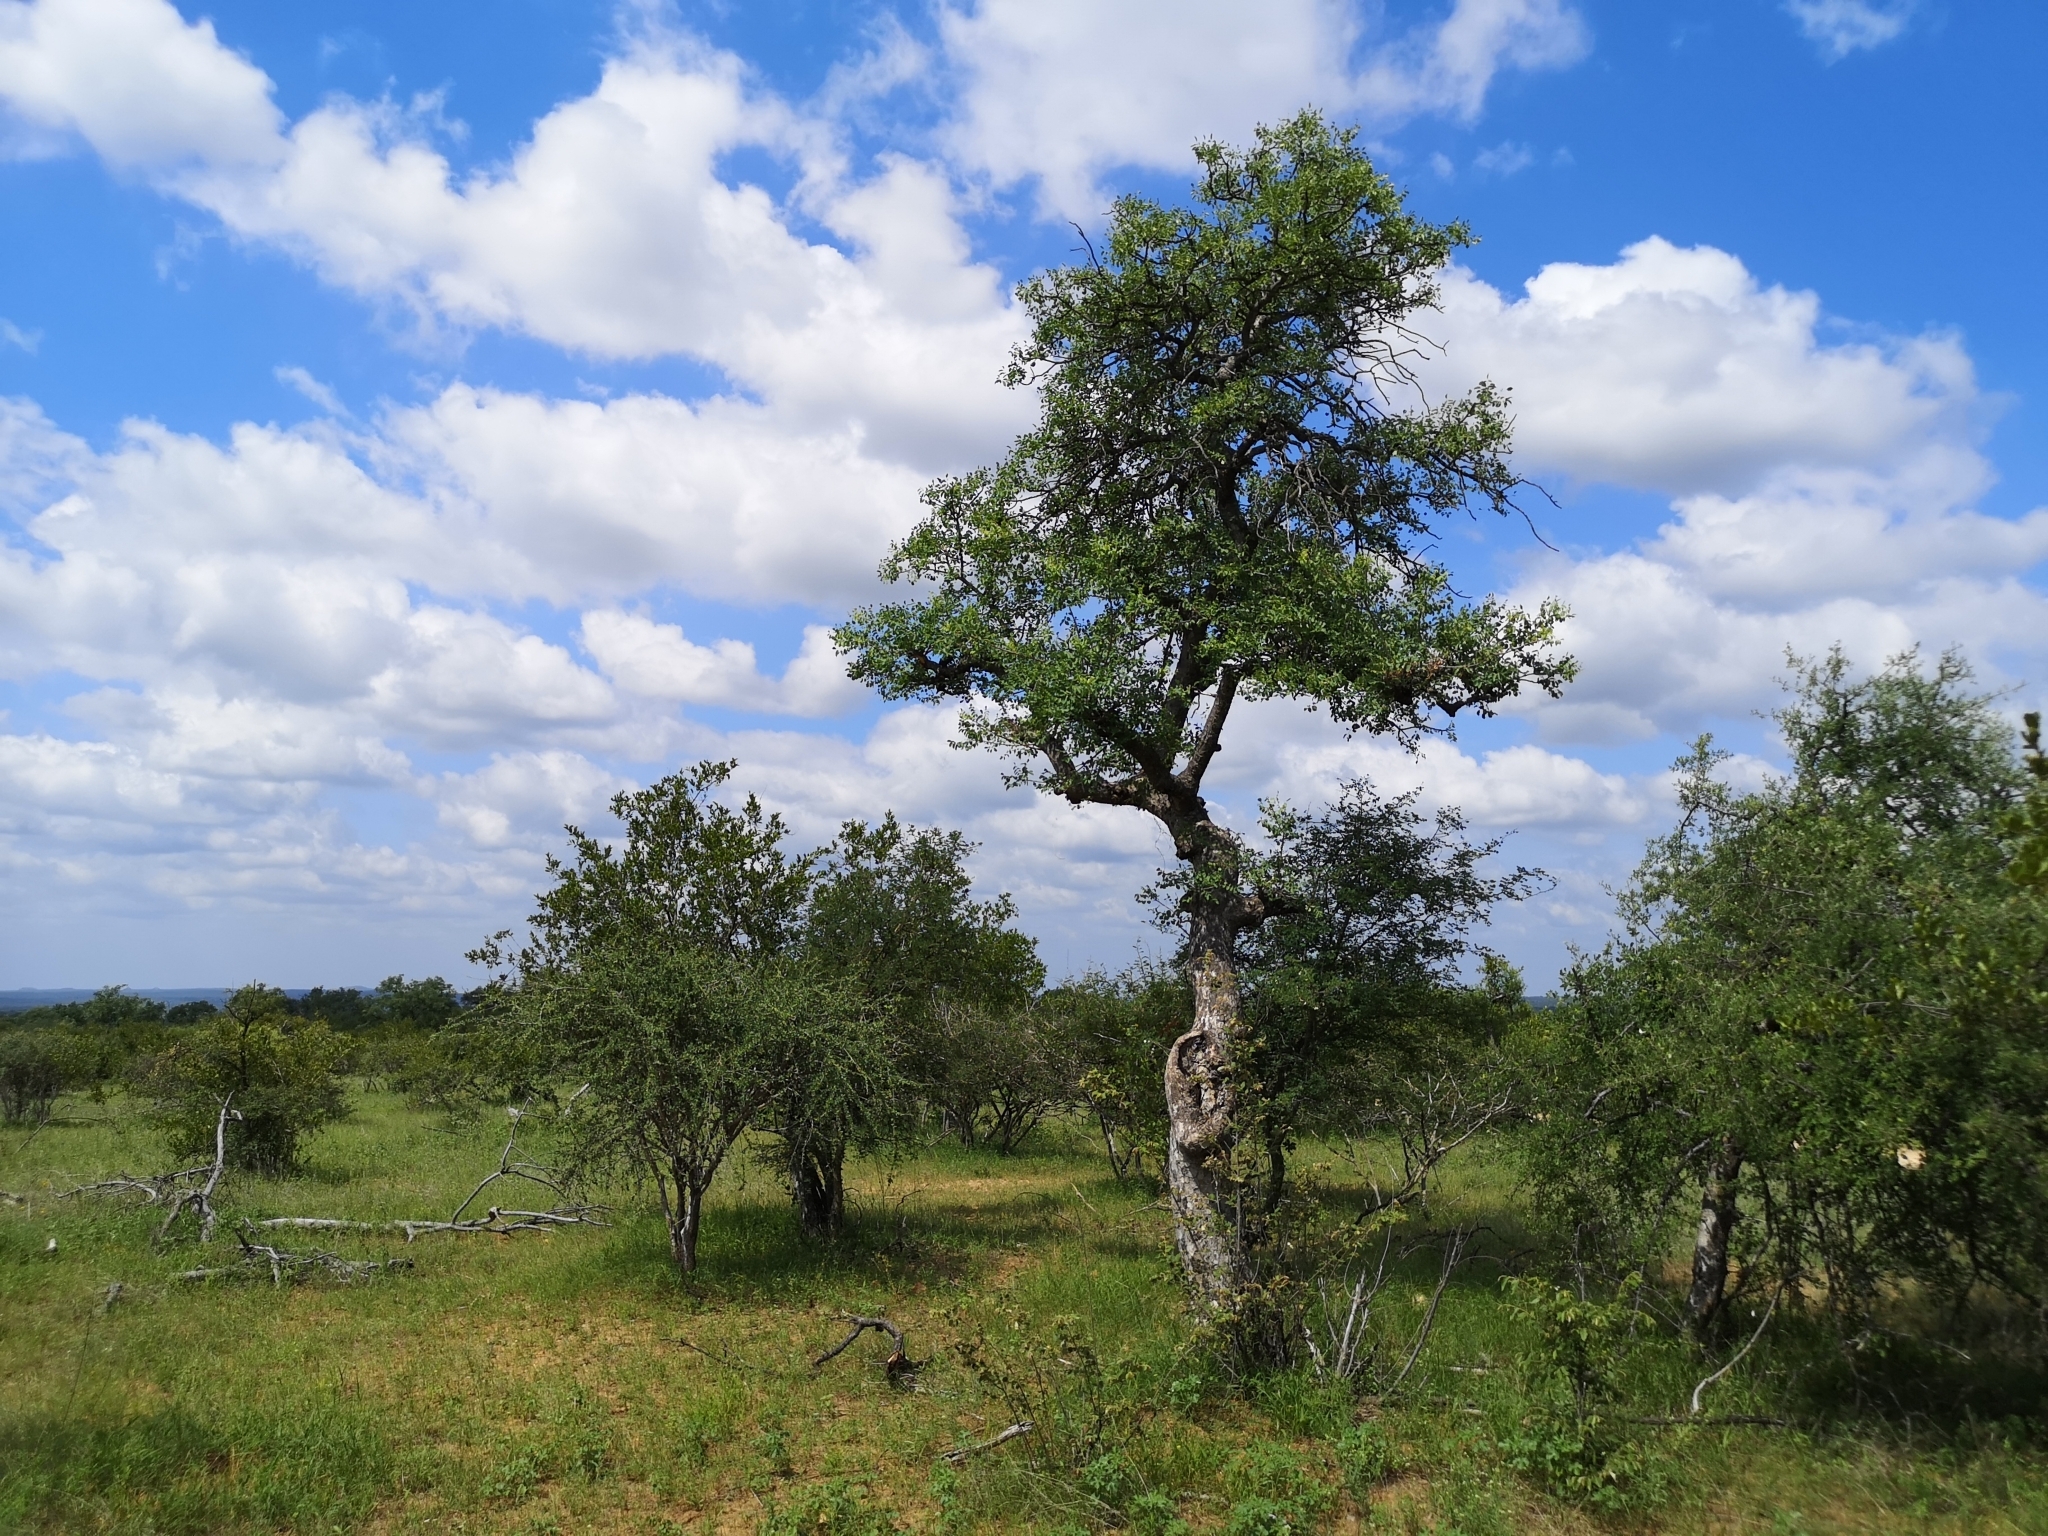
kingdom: Plantae
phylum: Tracheophyta
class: Magnoliopsida
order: Sapindales
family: Anacardiaceae
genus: Sclerocarya
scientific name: Sclerocarya birrea
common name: Marula
